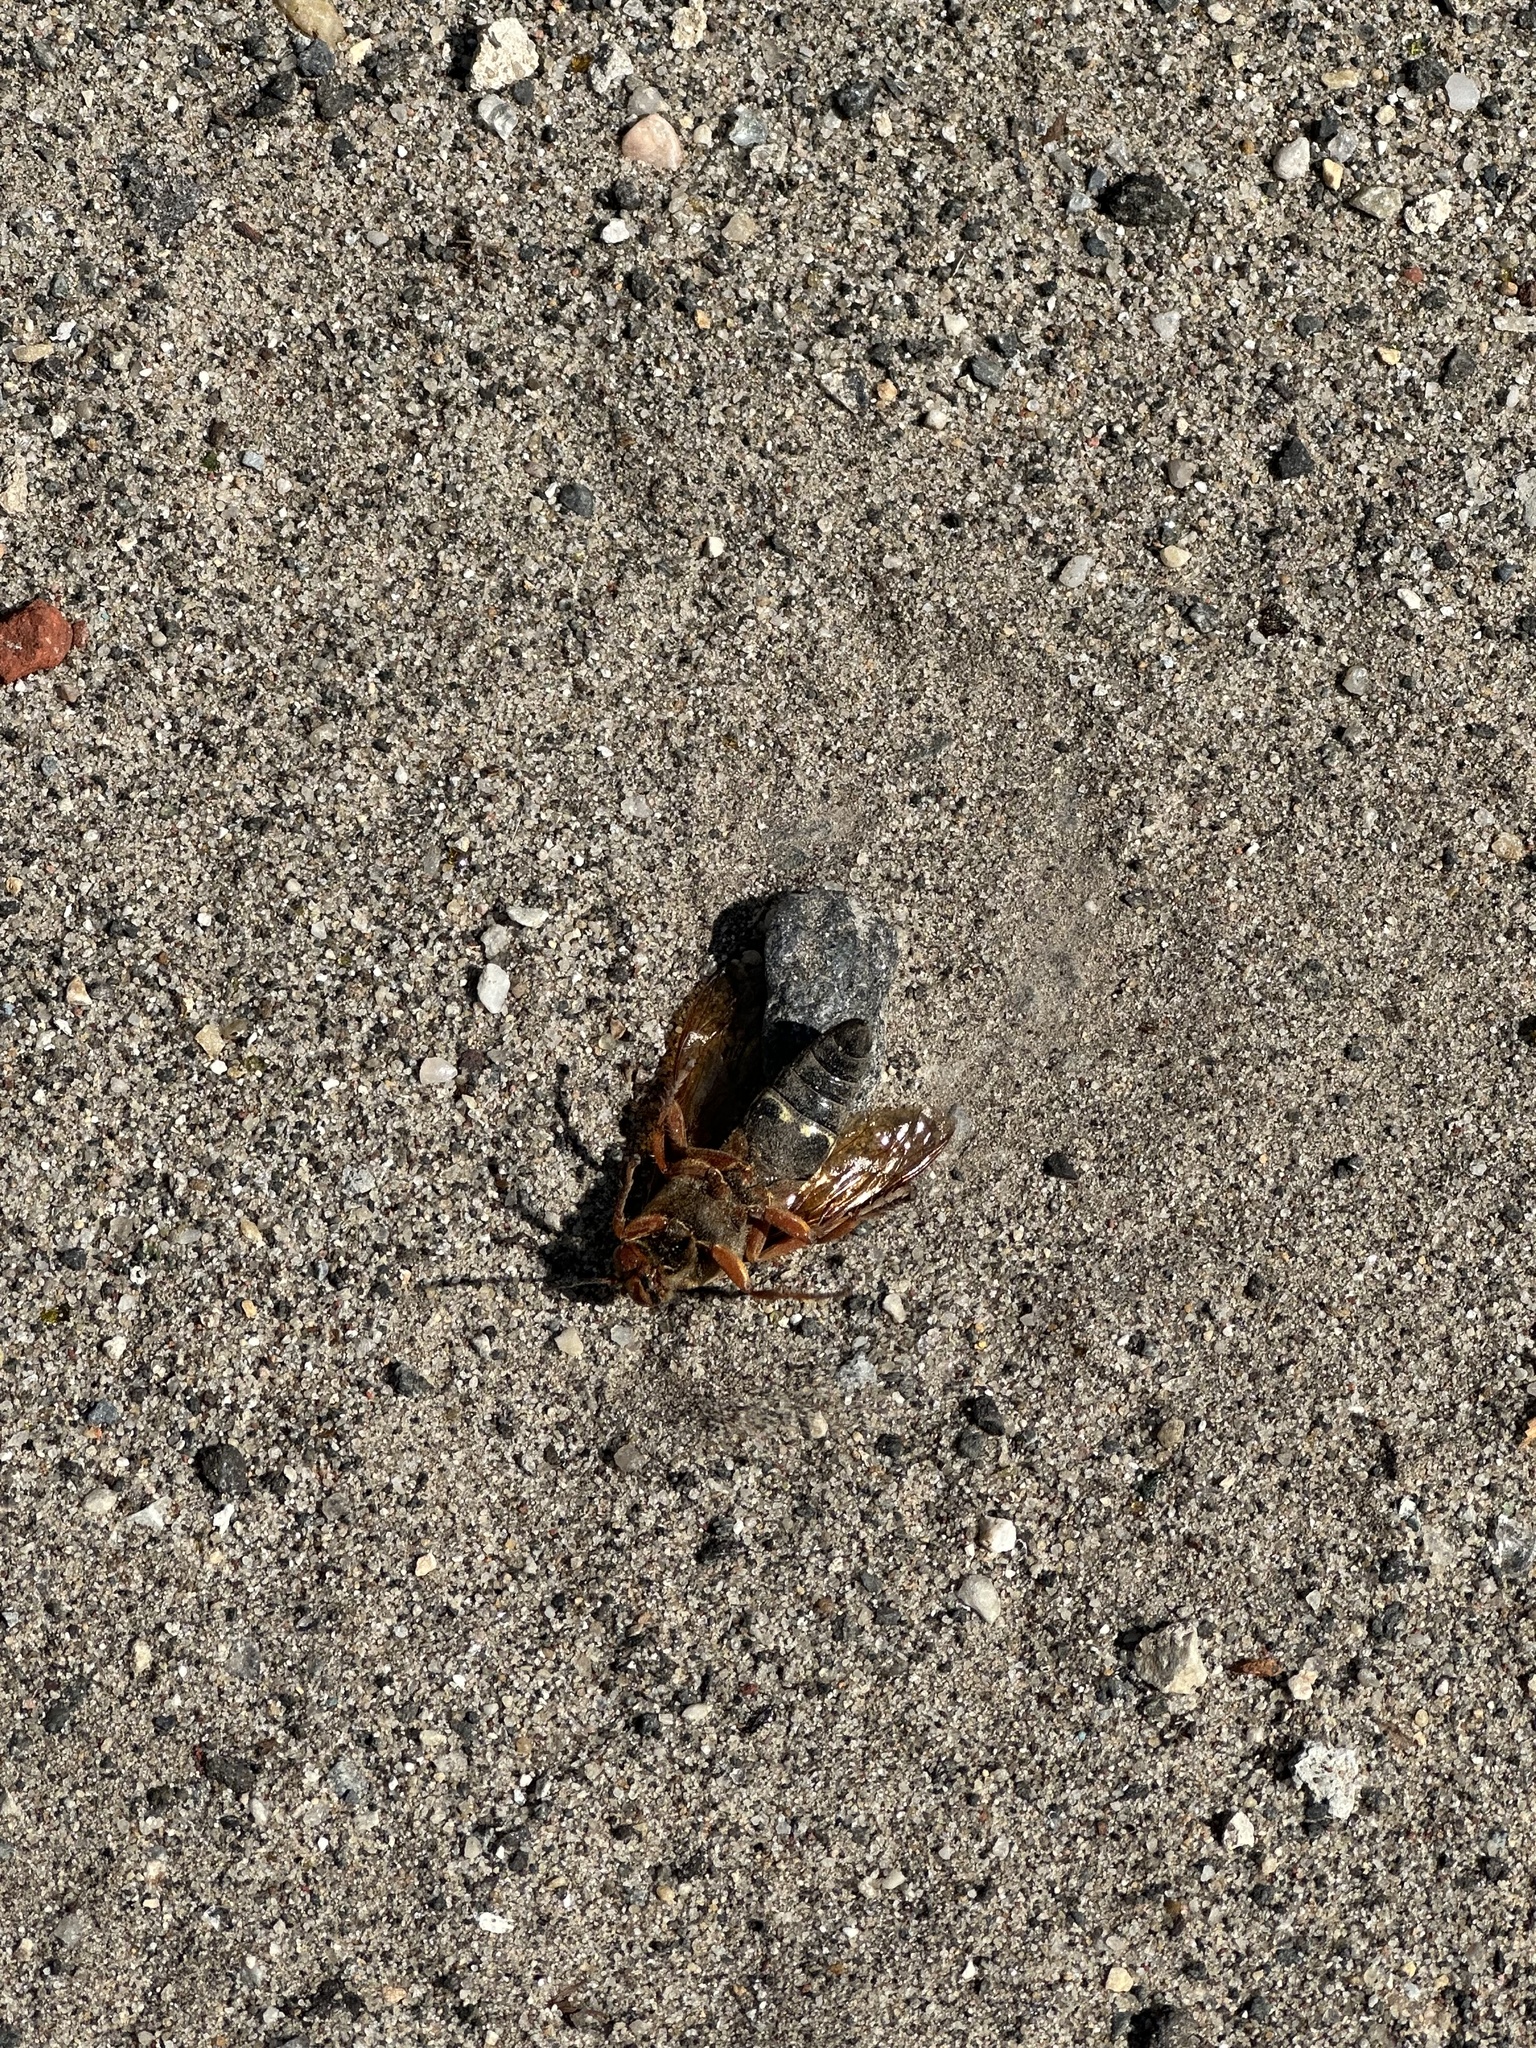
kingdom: Animalia
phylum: Arthropoda
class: Insecta
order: Hymenoptera
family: Crabronidae
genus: Sphecius
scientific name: Sphecius speciosus
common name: Cicada killer
